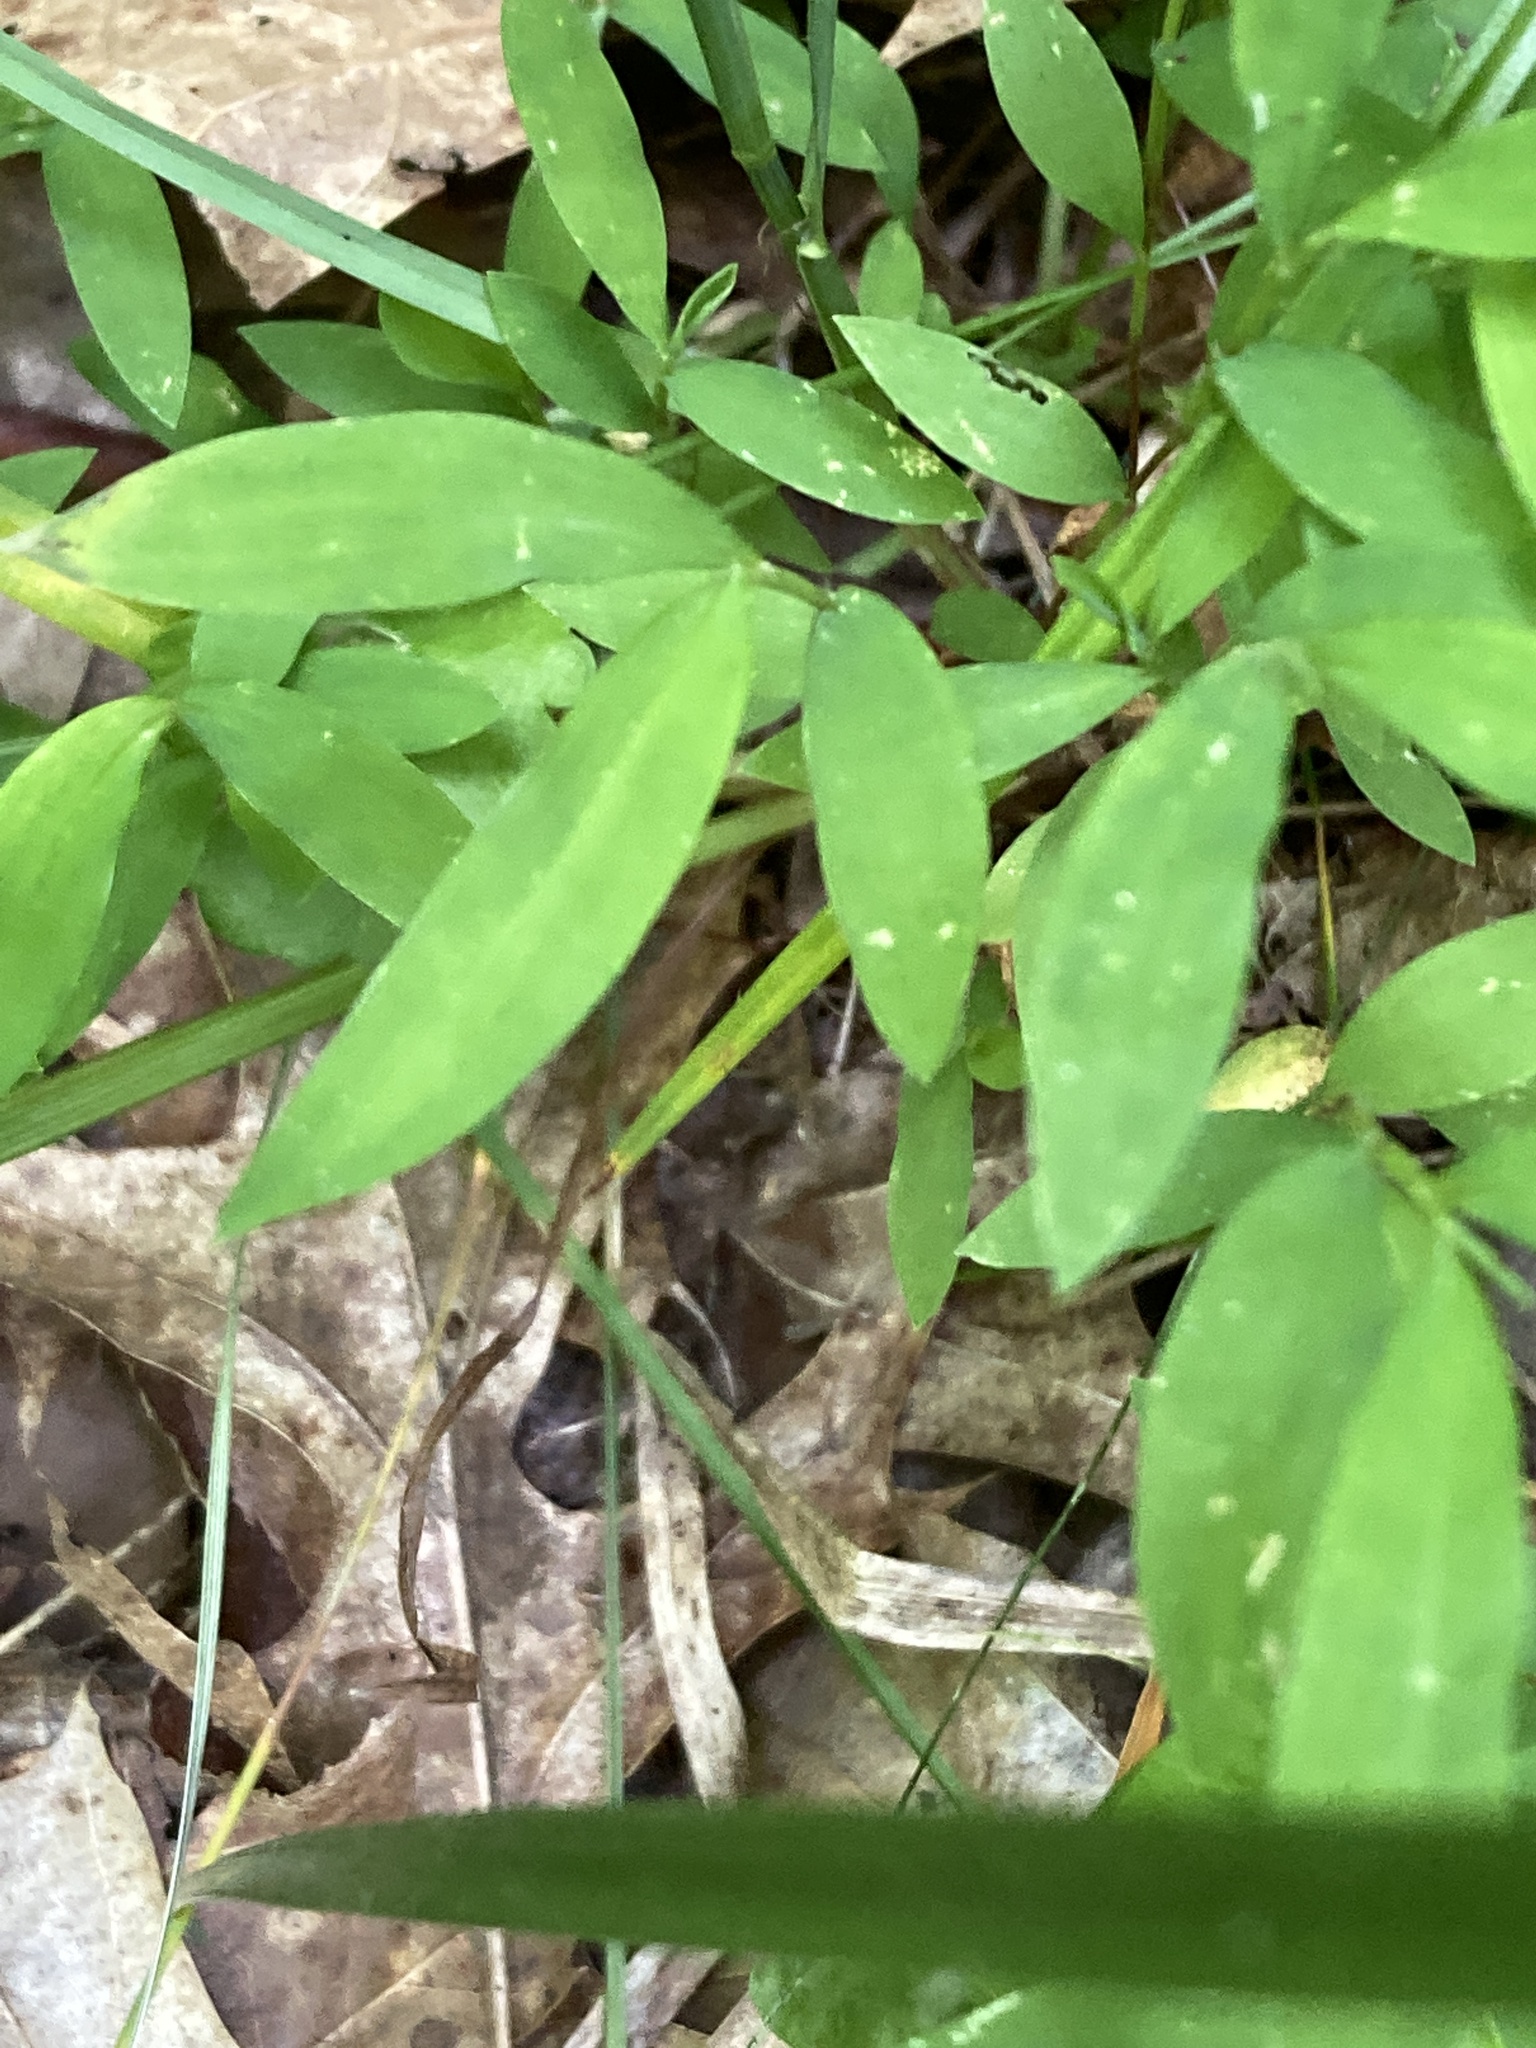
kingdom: Plantae
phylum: Tracheophyta
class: Liliopsida
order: Poales
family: Poaceae
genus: Microstegium
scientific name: Microstegium vimineum
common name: Japanese stiltgrass
